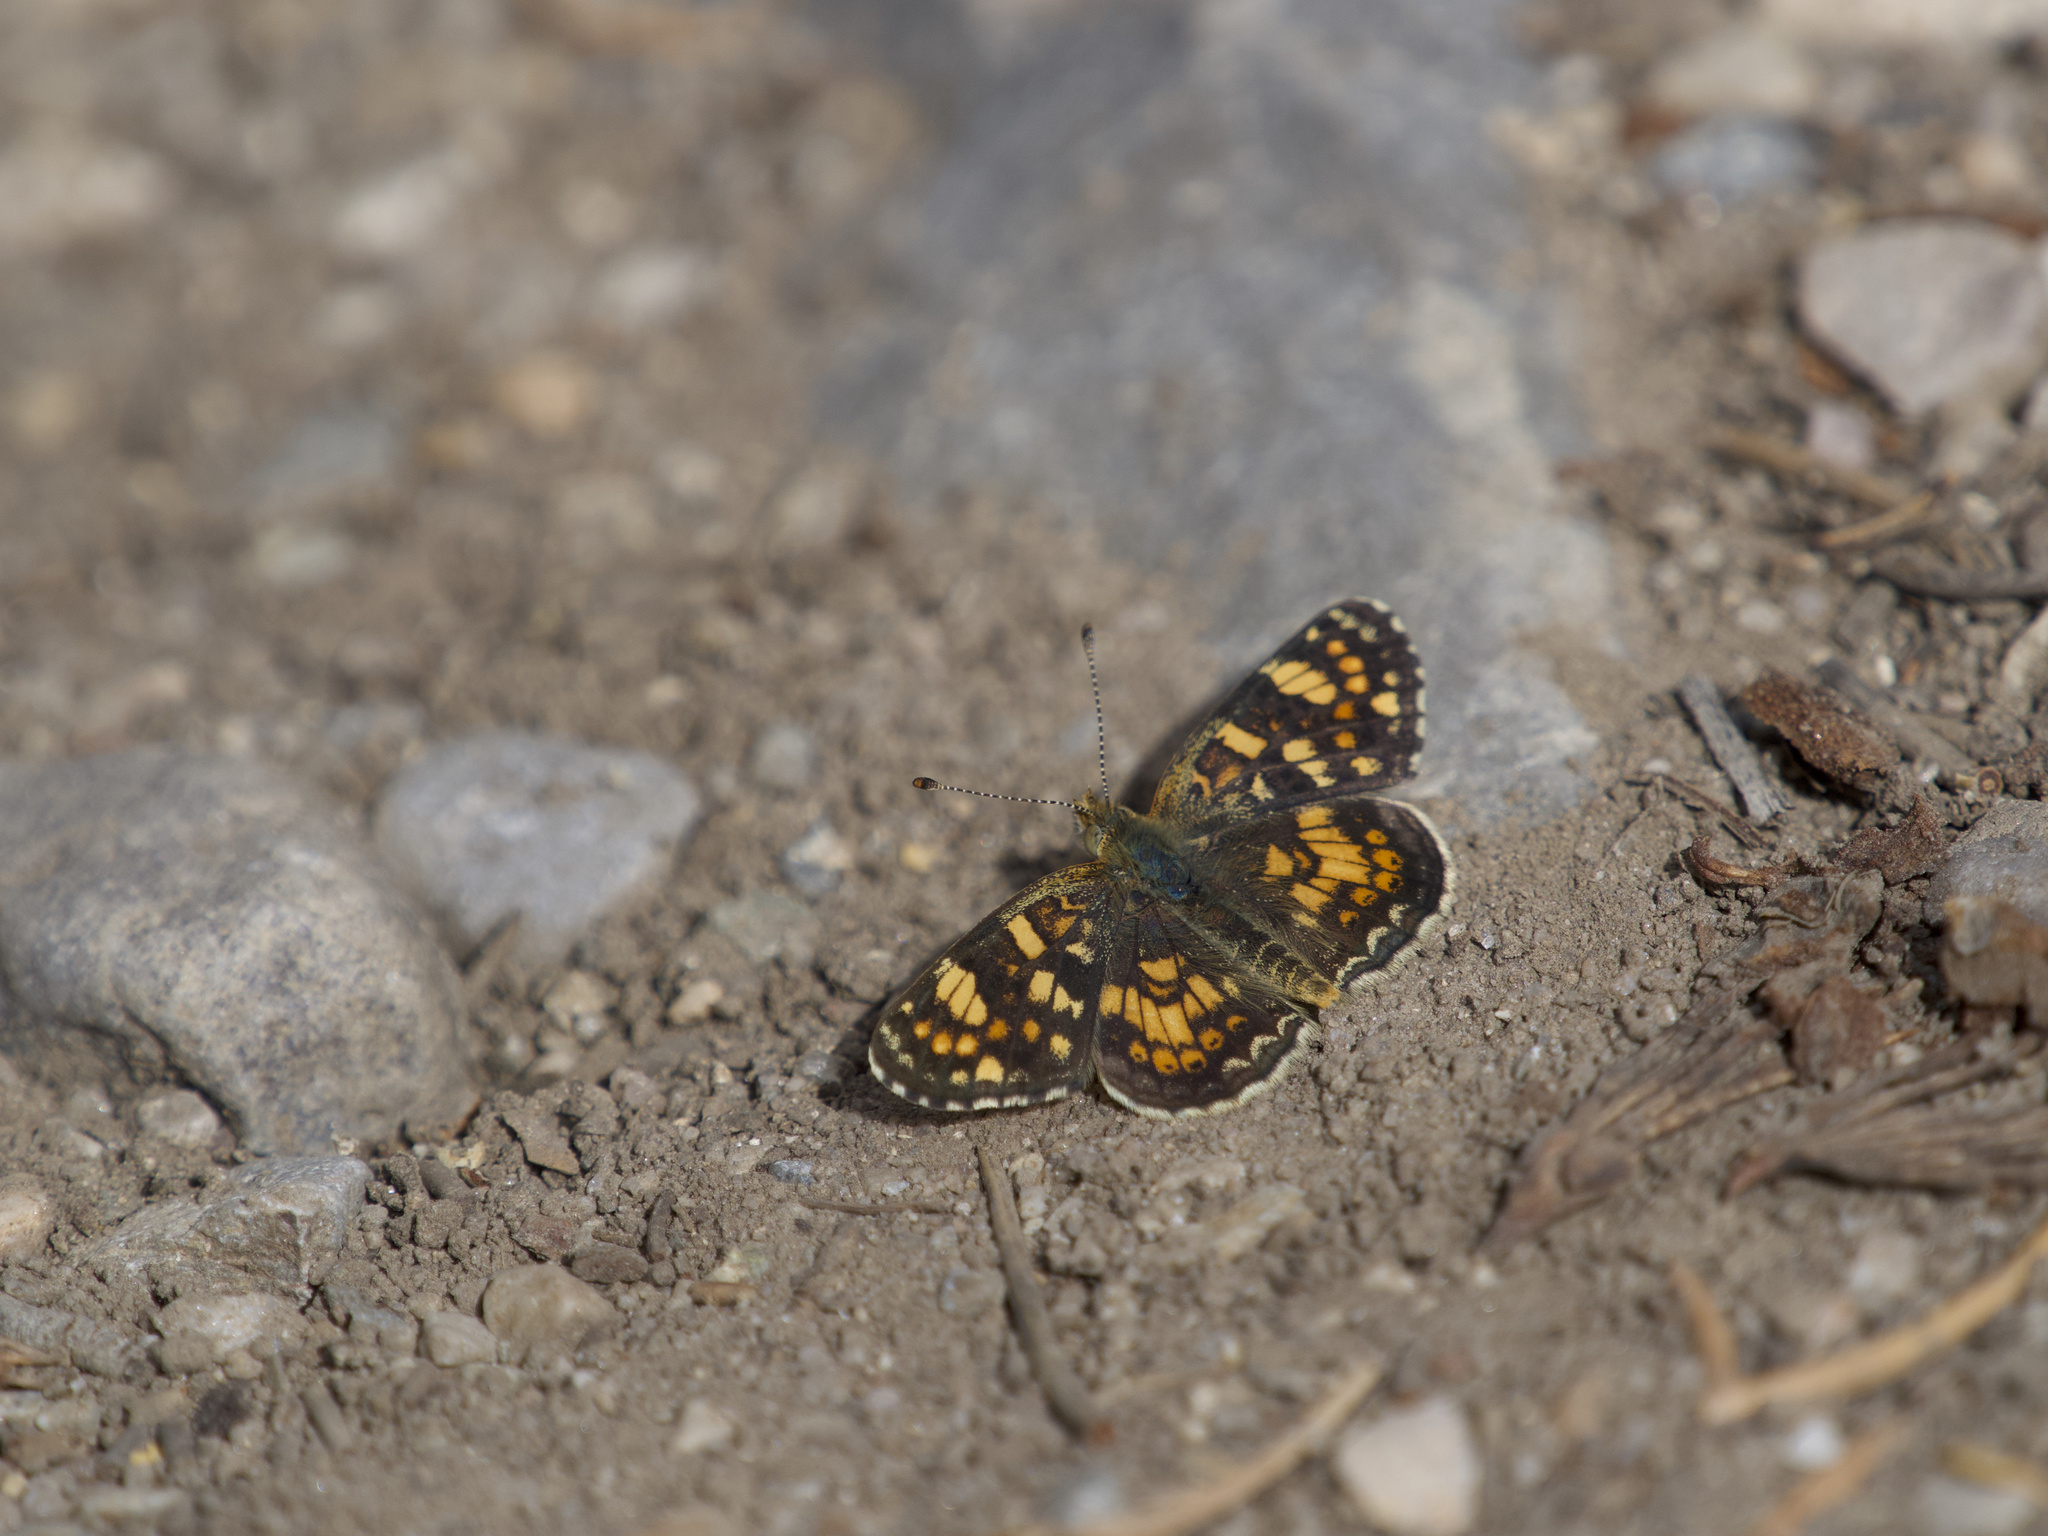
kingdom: Animalia
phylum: Arthropoda
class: Insecta
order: Lepidoptera
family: Nymphalidae
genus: Phyciodes
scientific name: Phyciodes tharos
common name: Pearl crescent
